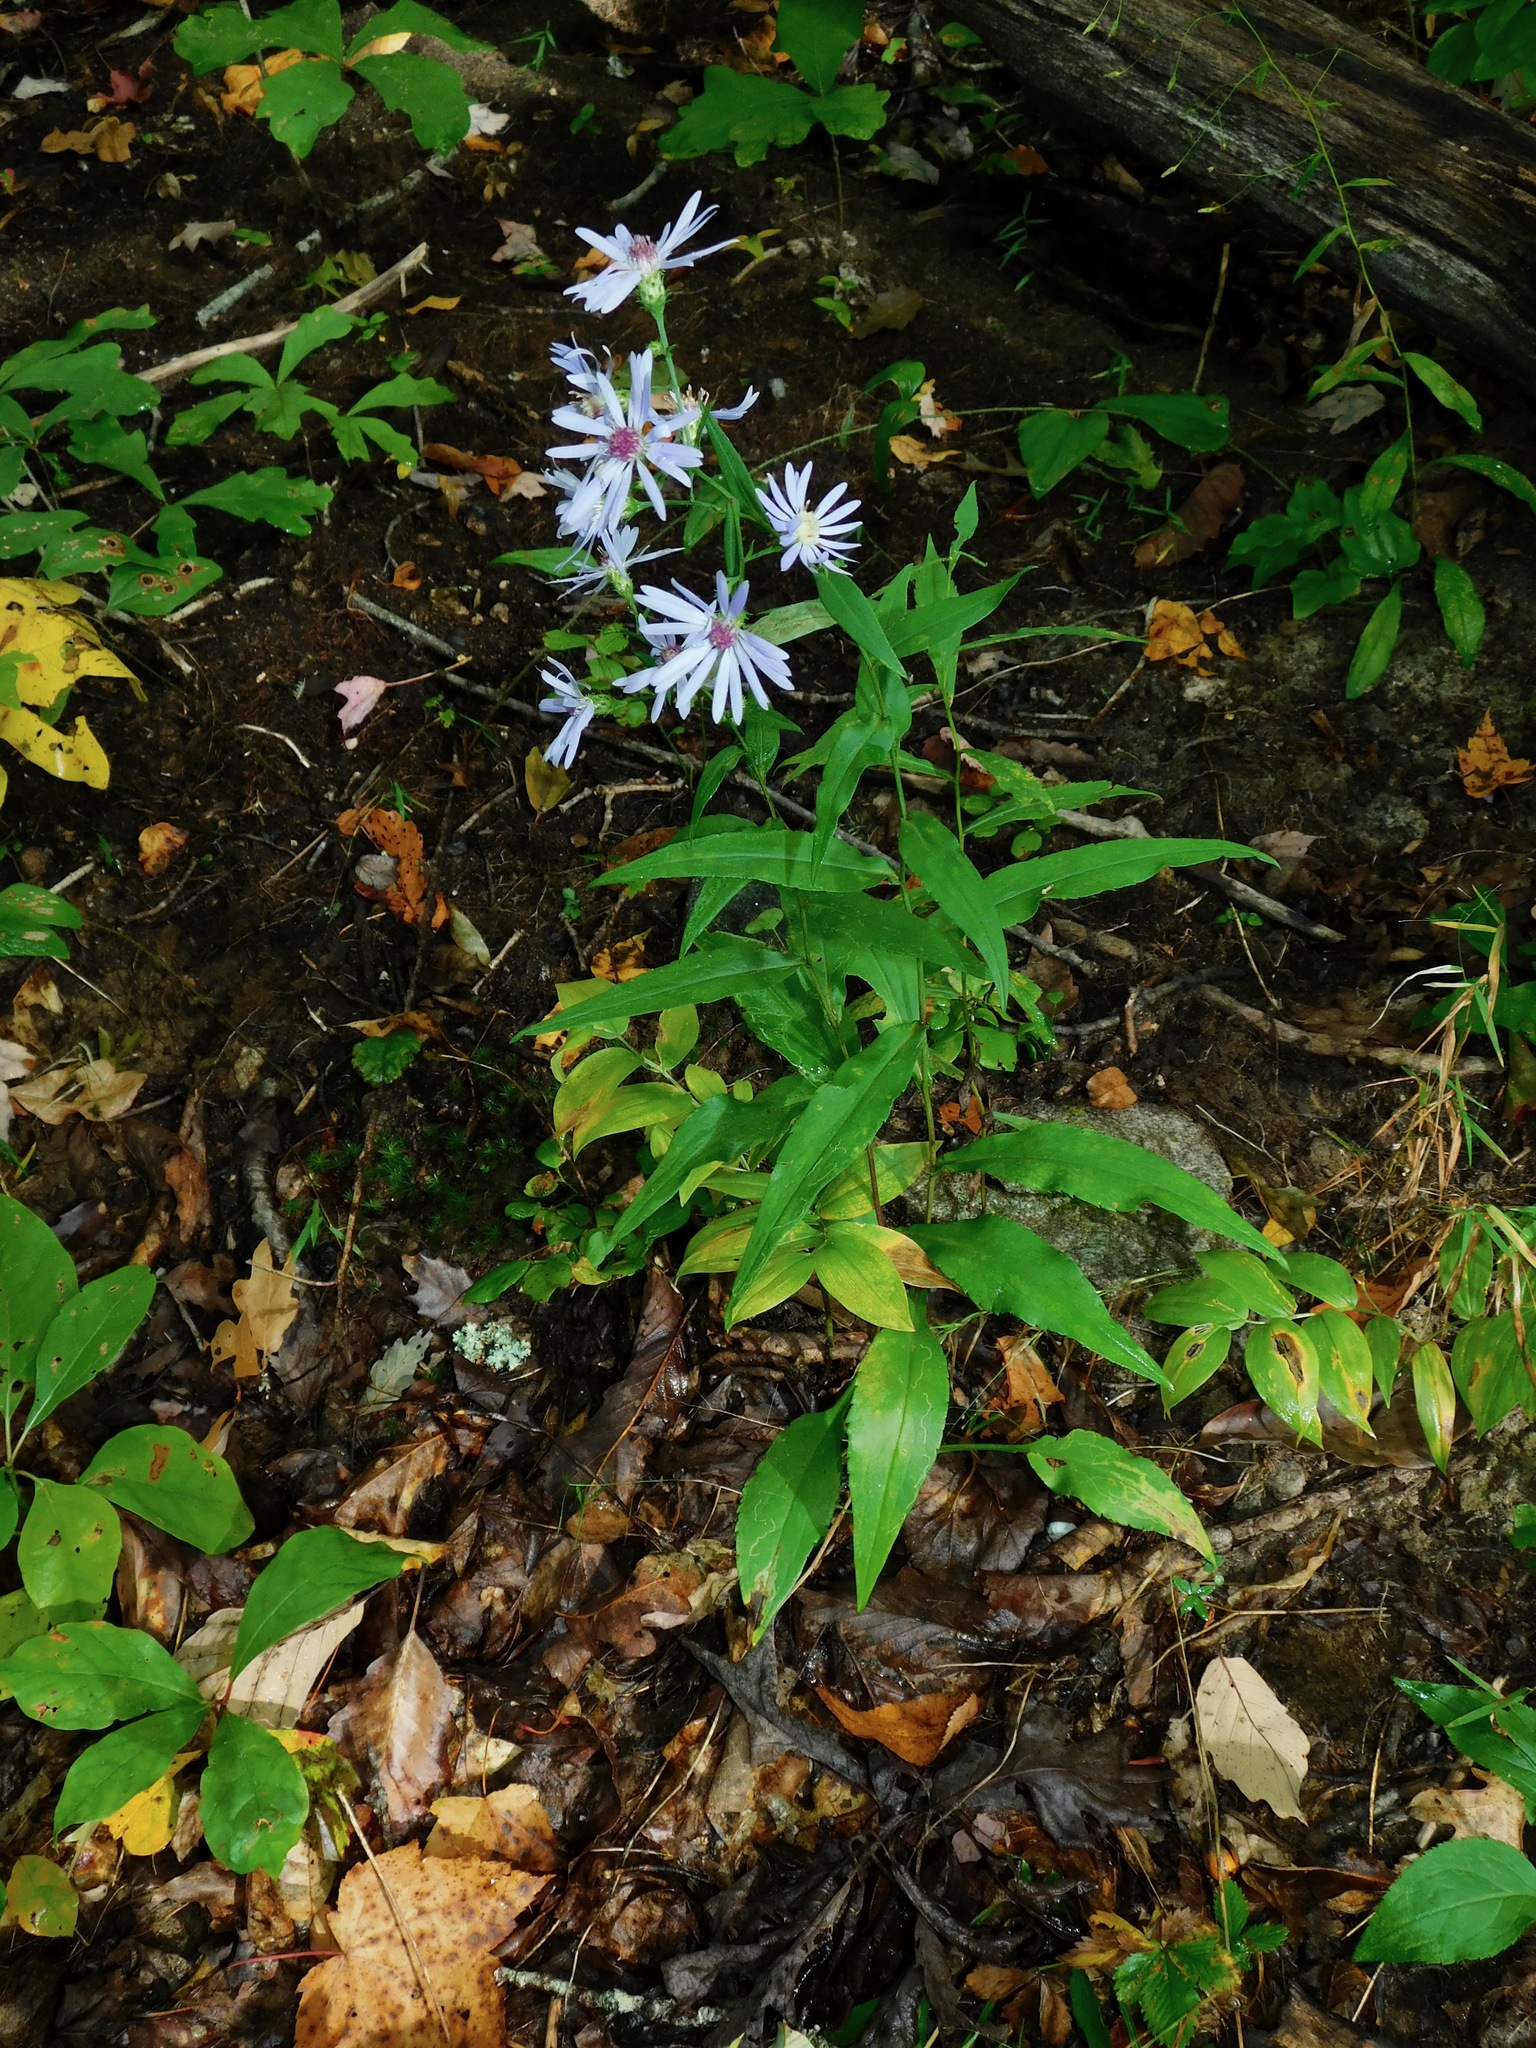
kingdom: Plantae
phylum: Tracheophyta
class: Magnoliopsida
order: Asterales
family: Asteraceae
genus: Symphyotrichum
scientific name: Symphyotrichum retroflexum
